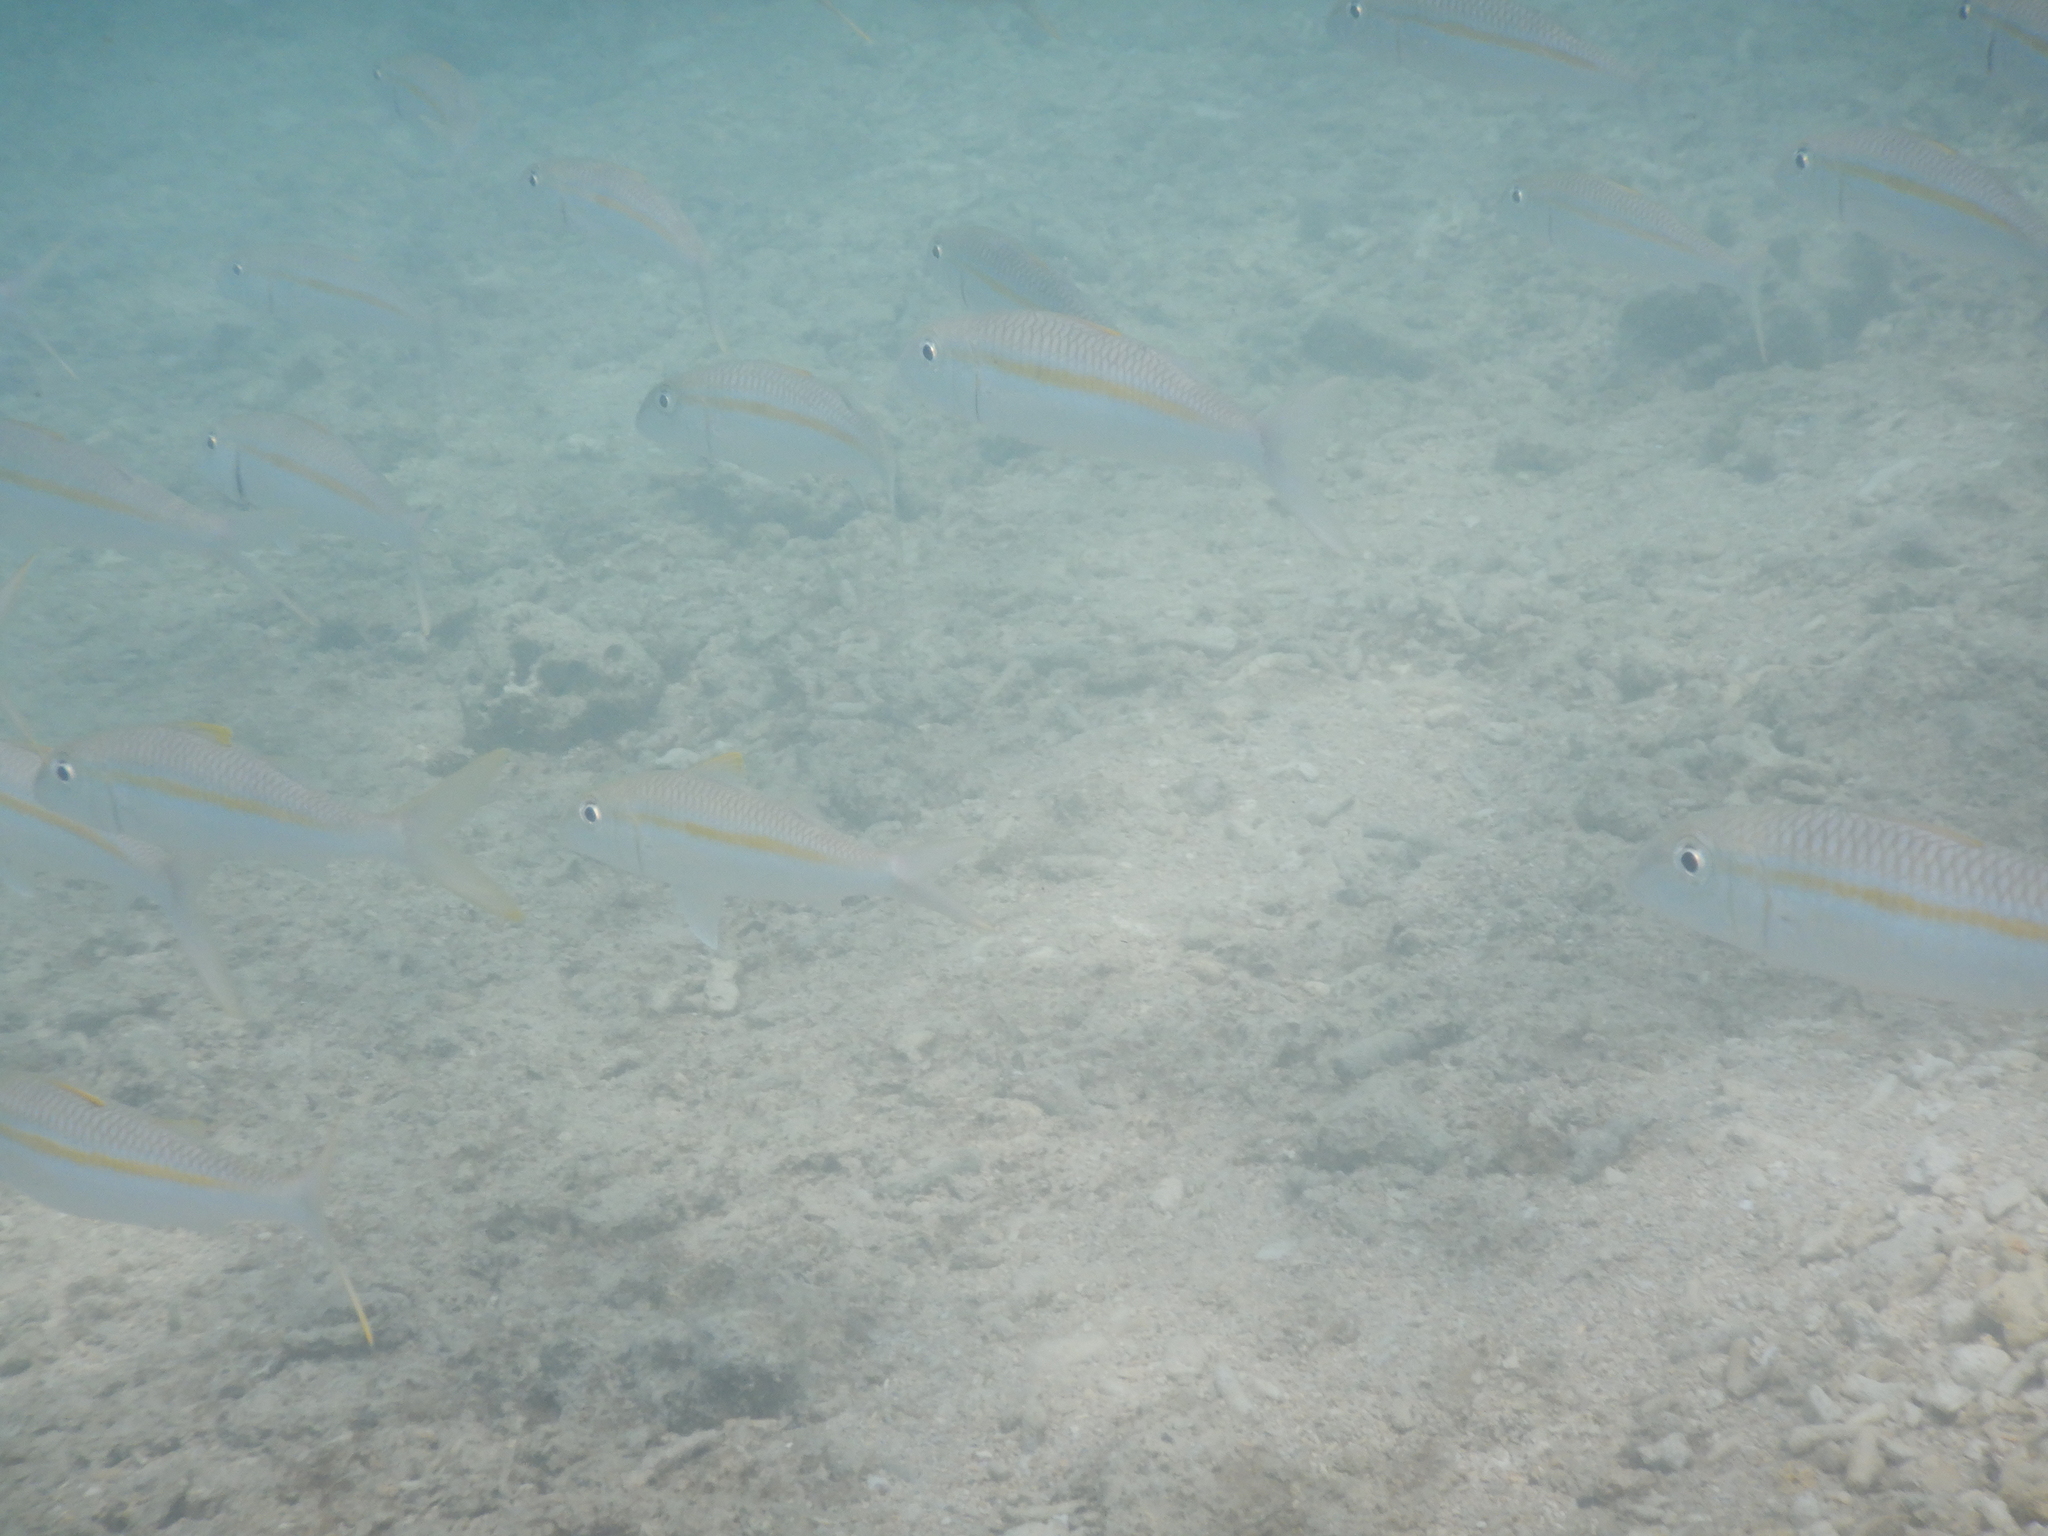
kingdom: Animalia
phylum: Chordata
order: Perciformes
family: Mullidae
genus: Mulloidichthys
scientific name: Mulloidichthys flavolineatus
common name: Yellowstripe goatfish
